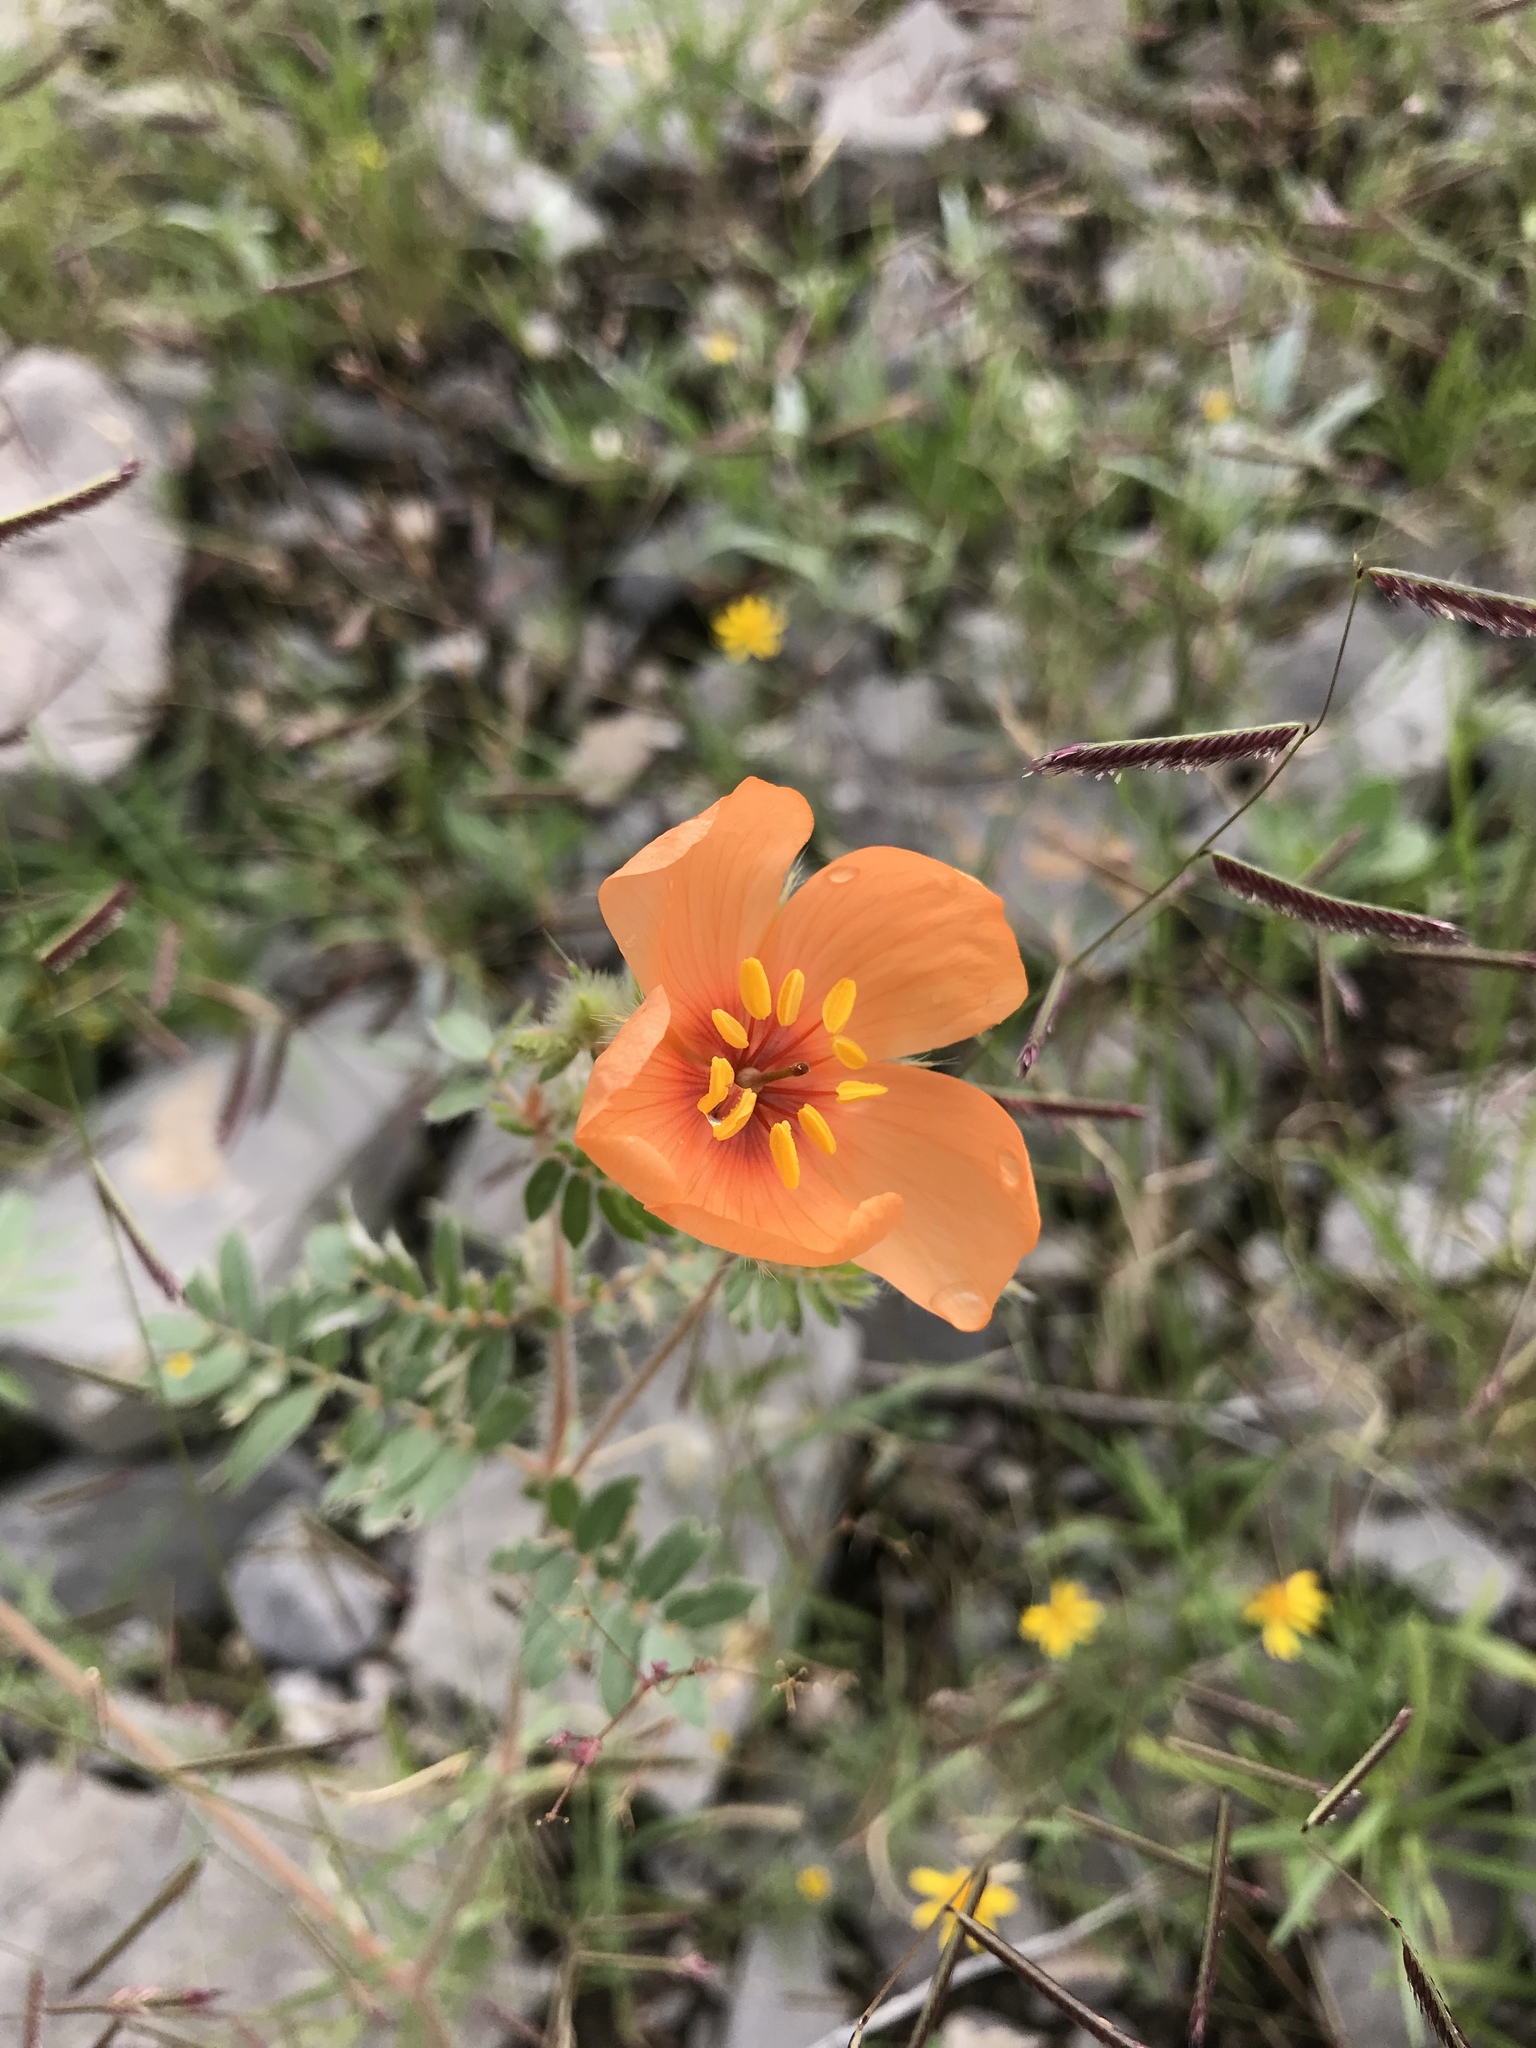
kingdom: Plantae
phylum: Tracheophyta
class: Magnoliopsida
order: Zygophyllales
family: Zygophyllaceae
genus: Kallstroemia
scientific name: Kallstroemia grandiflora
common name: Arizona-poppy
